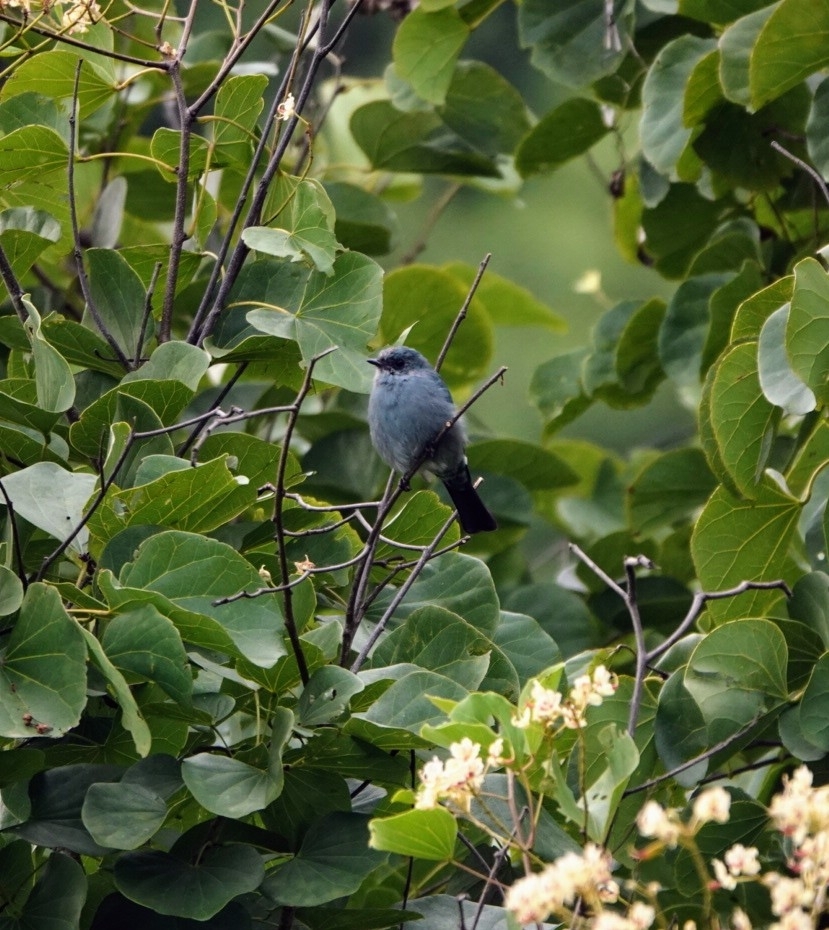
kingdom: Animalia
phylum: Chordata
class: Aves
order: Passeriformes
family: Muscicapidae
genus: Eumyias
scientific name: Eumyias thalassinus
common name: Verditer flycatcher
